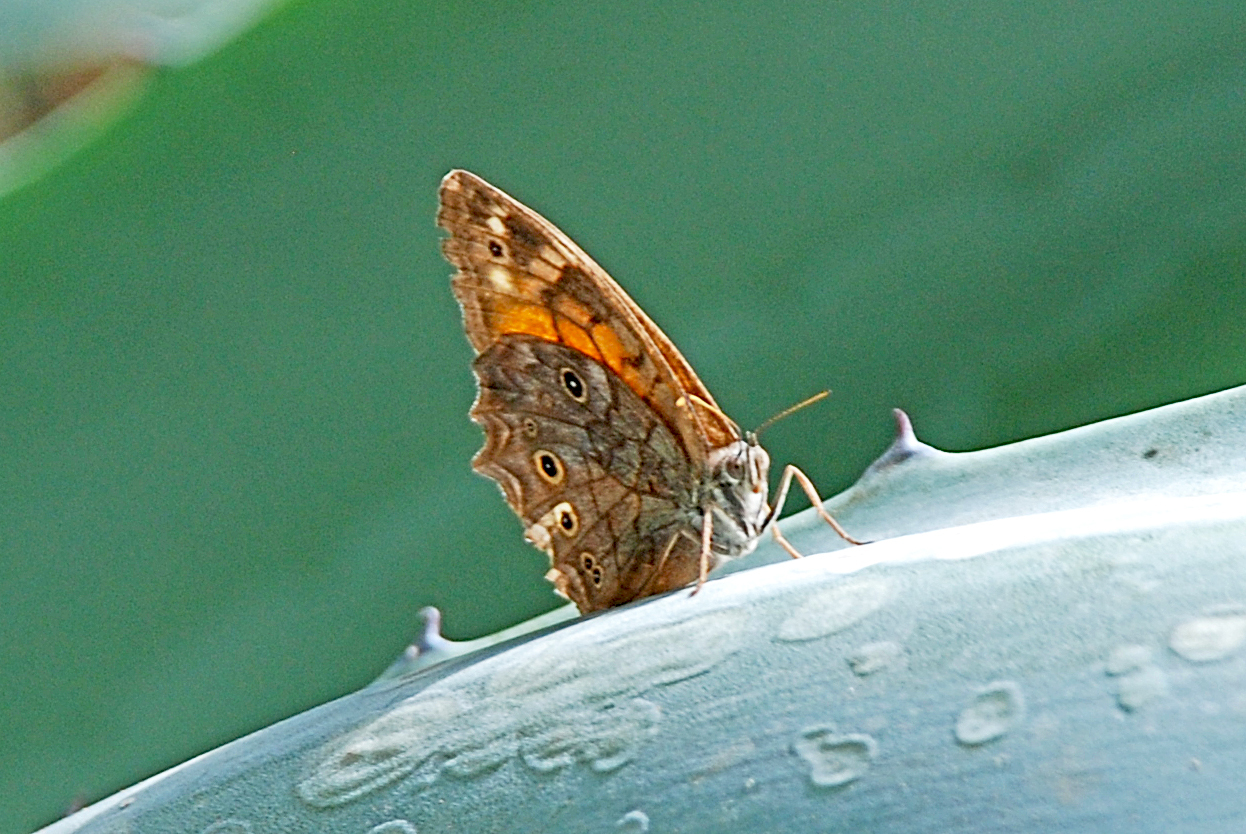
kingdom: Animalia
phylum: Arthropoda
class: Insecta
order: Lepidoptera
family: Nymphalidae
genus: Kirinia
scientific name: Kirinia roxelana
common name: Lattice brown
